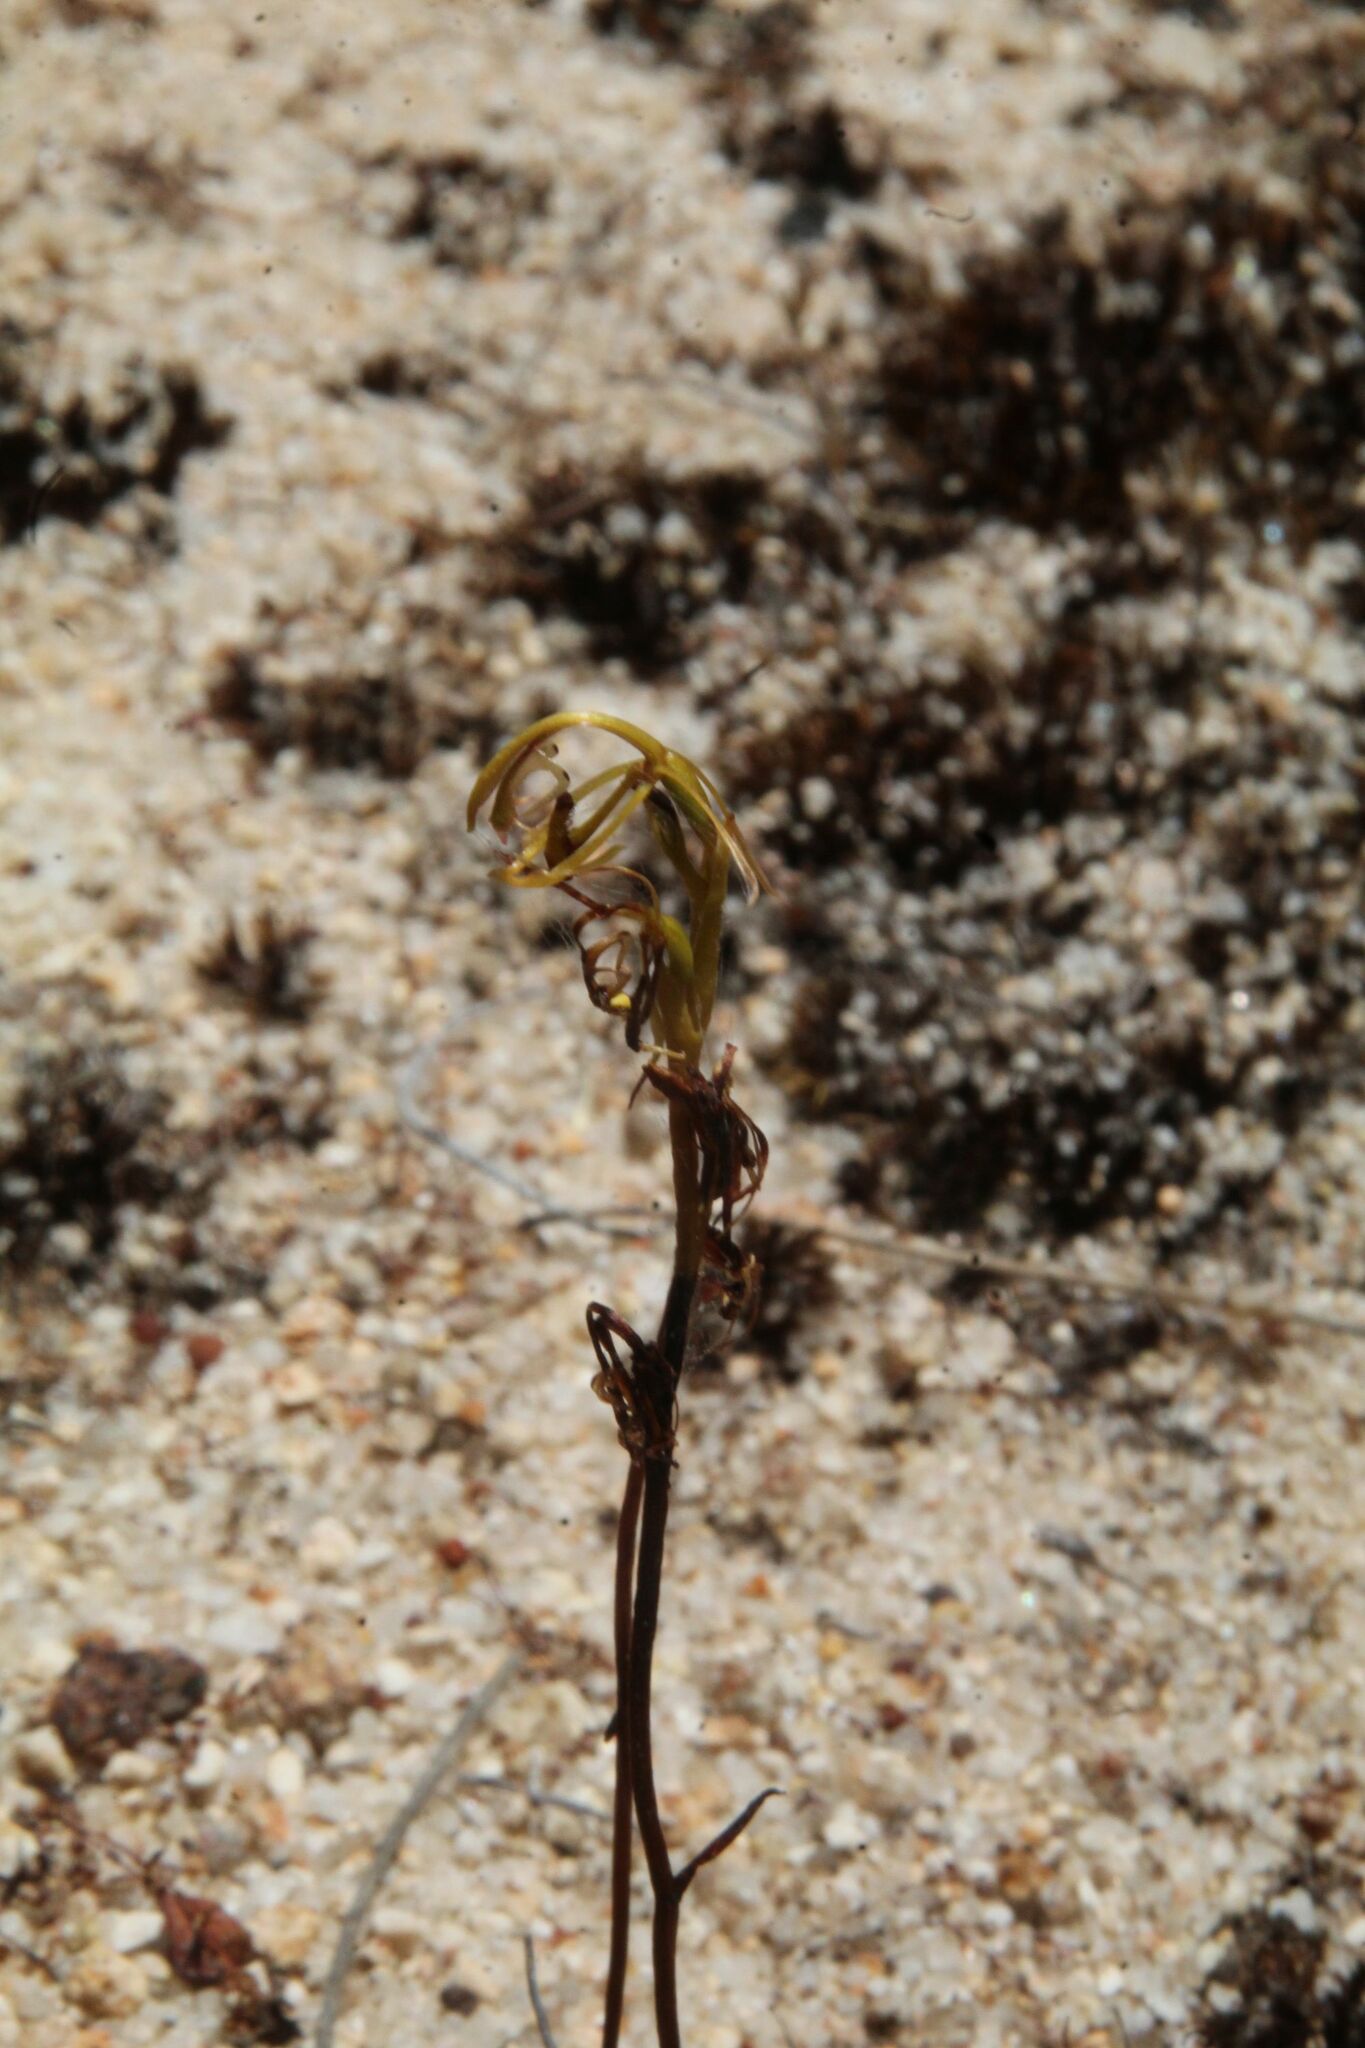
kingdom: Plantae
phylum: Tracheophyta
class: Liliopsida
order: Asparagales
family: Orchidaceae
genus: Spiculaea
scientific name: Spiculaea ciliata
